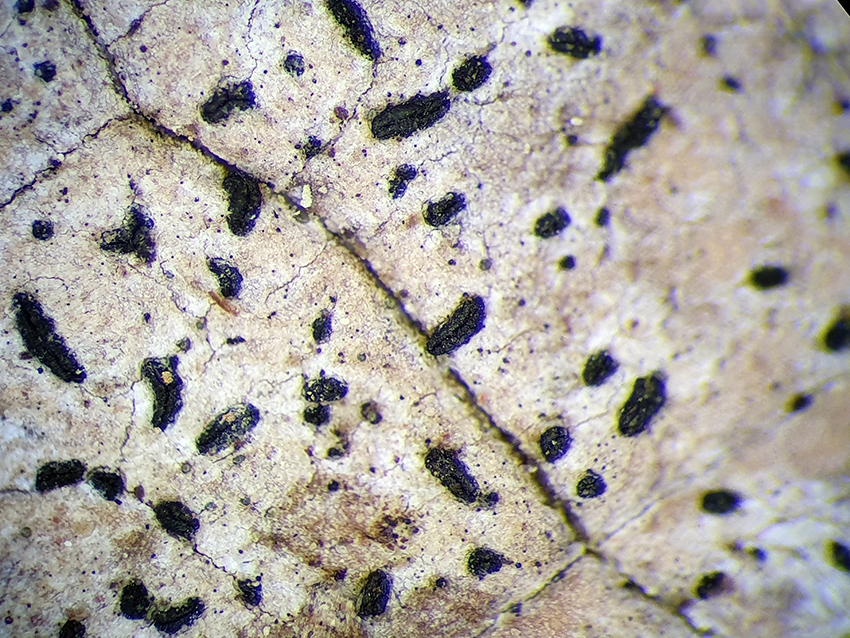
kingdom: Fungi
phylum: Ascomycota
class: Arthoniomycetes
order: Arthoniales
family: Lecanographaceae
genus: Zwackhia
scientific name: Zwackhia viridis
